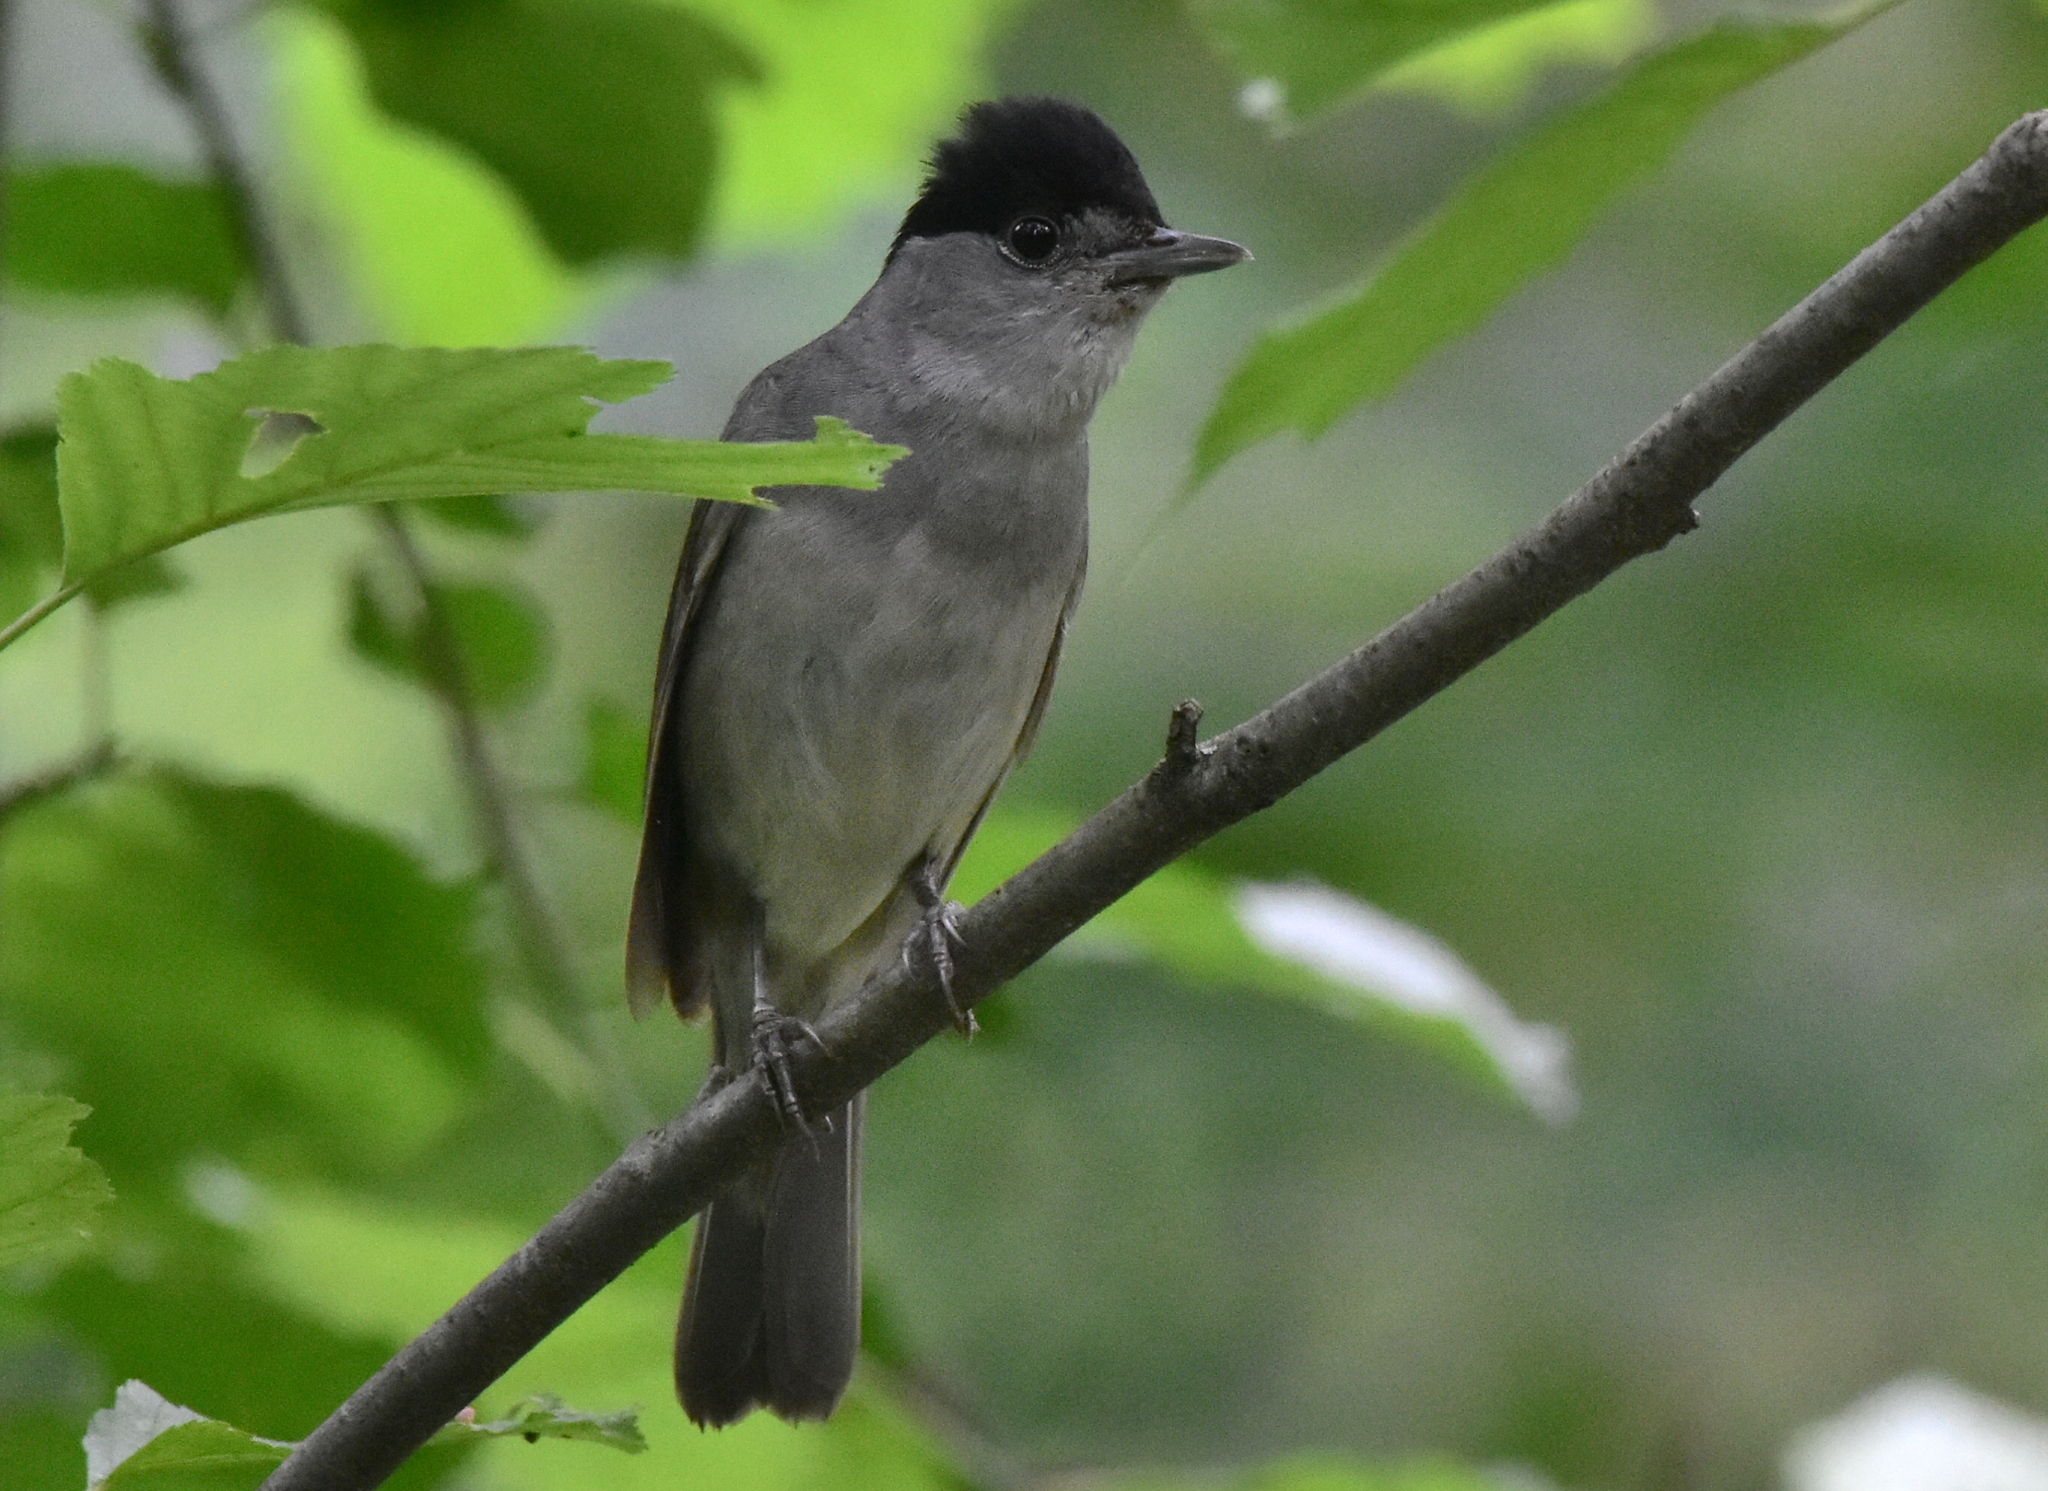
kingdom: Animalia
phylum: Chordata
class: Aves
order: Passeriformes
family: Sylviidae
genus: Sylvia
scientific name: Sylvia atricapilla
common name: Eurasian blackcap
